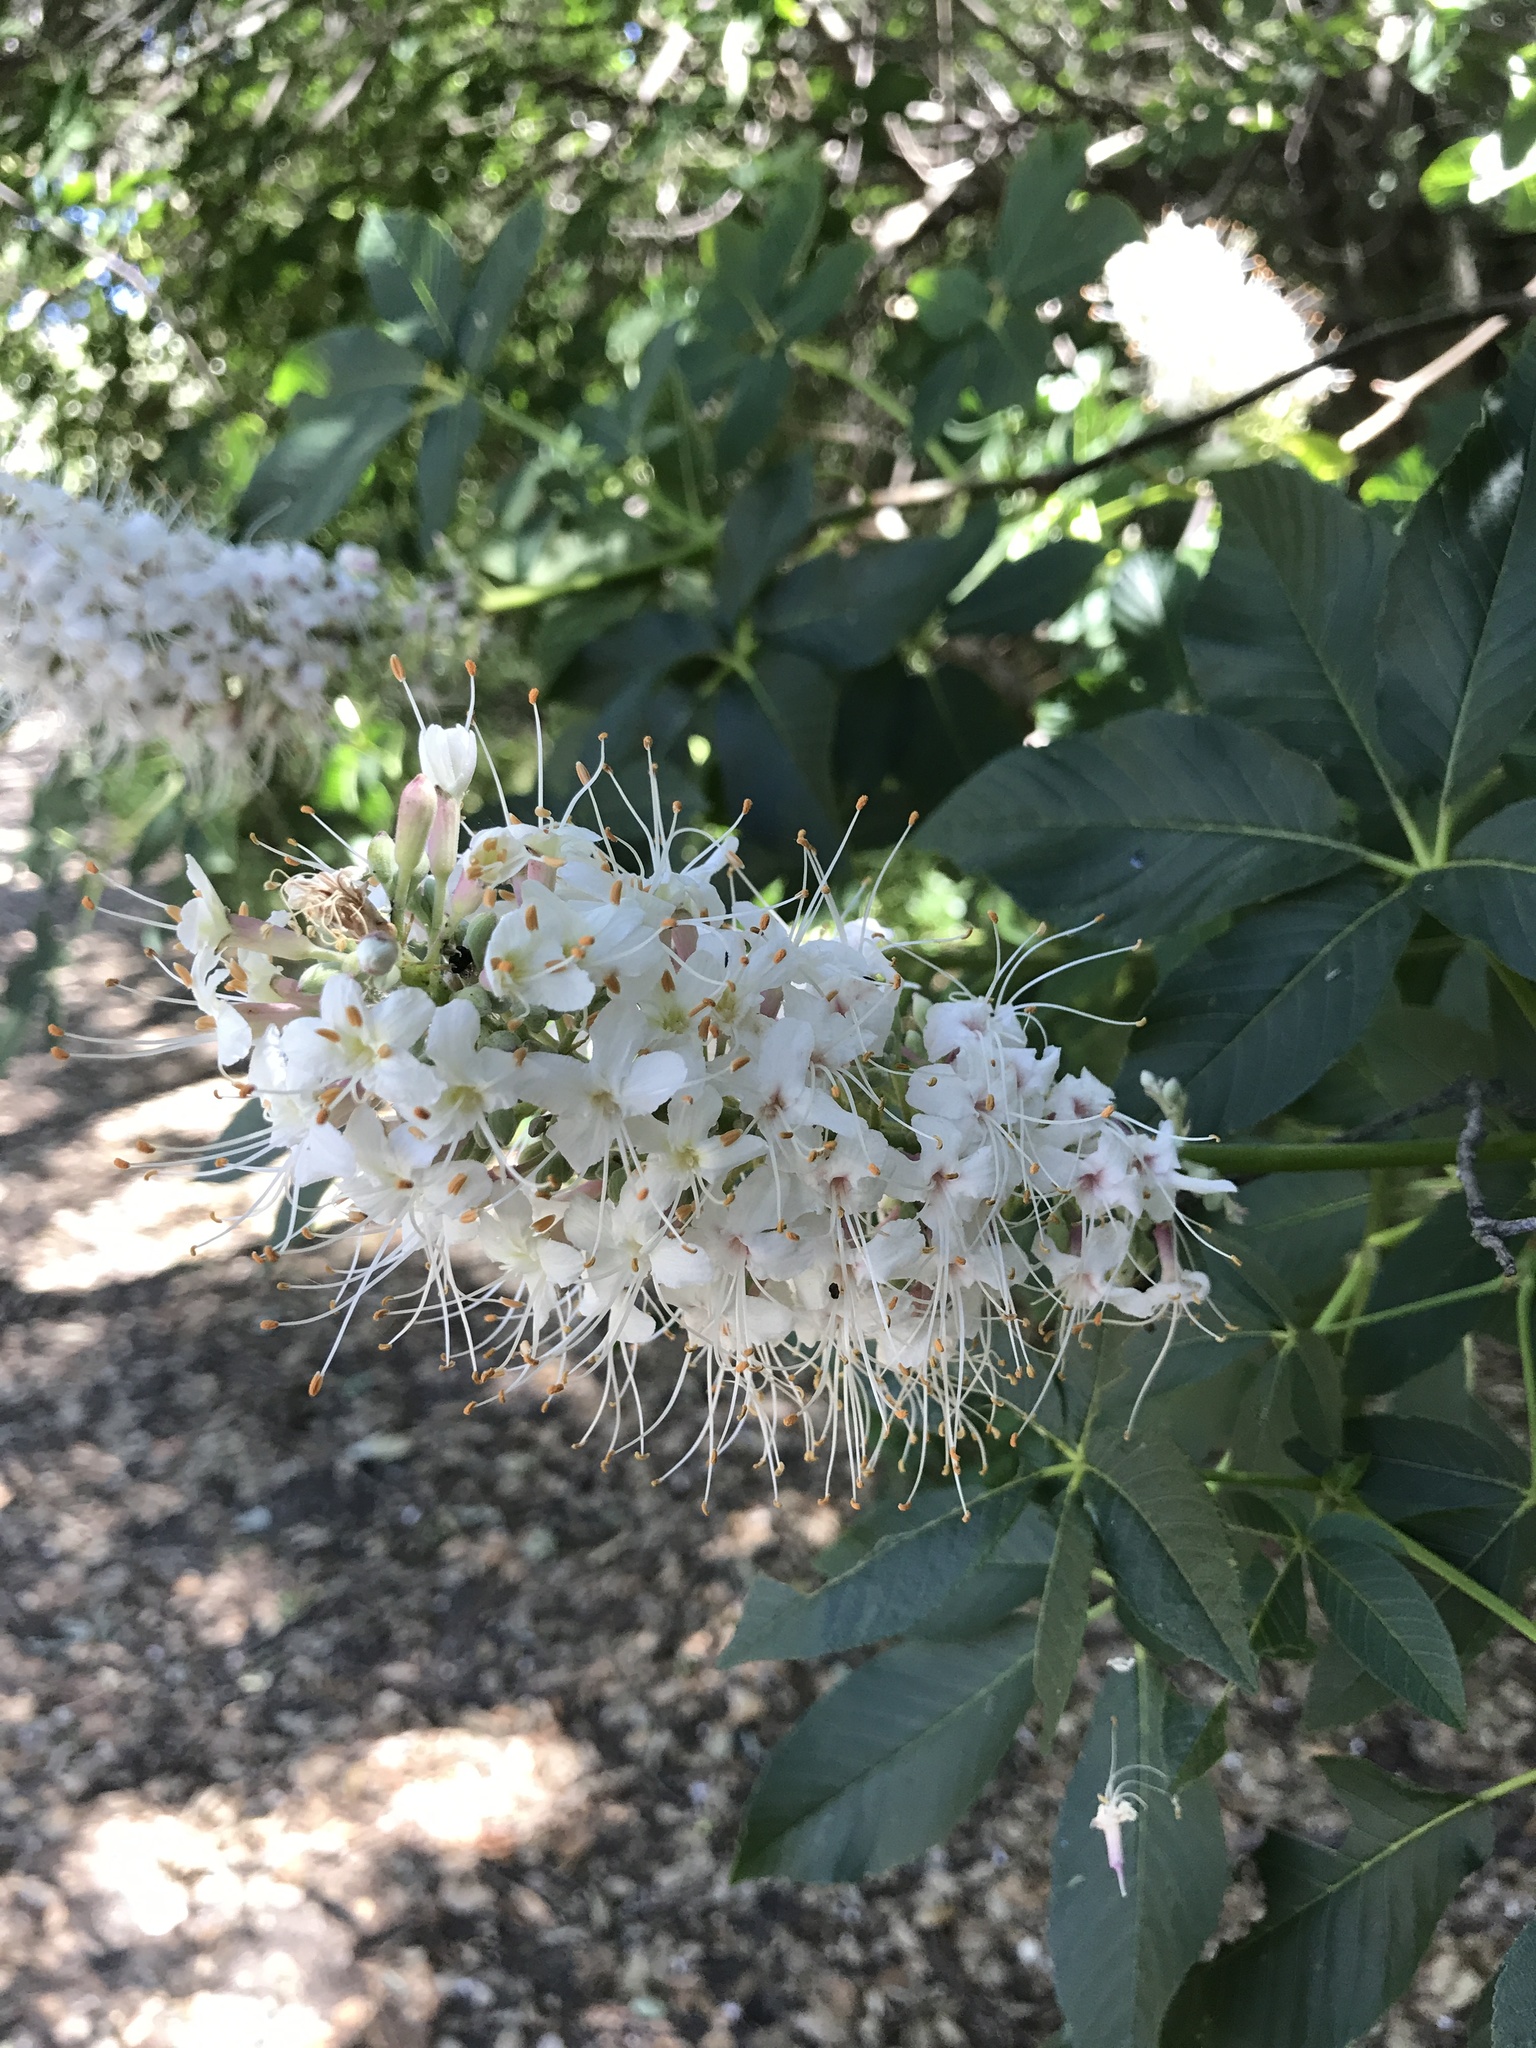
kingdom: Plantae
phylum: Tracheophyta
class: Magnoliopsida
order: Sapindales
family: Sapindaceae
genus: Aesculus
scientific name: Aesculus californica
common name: California buckeye
